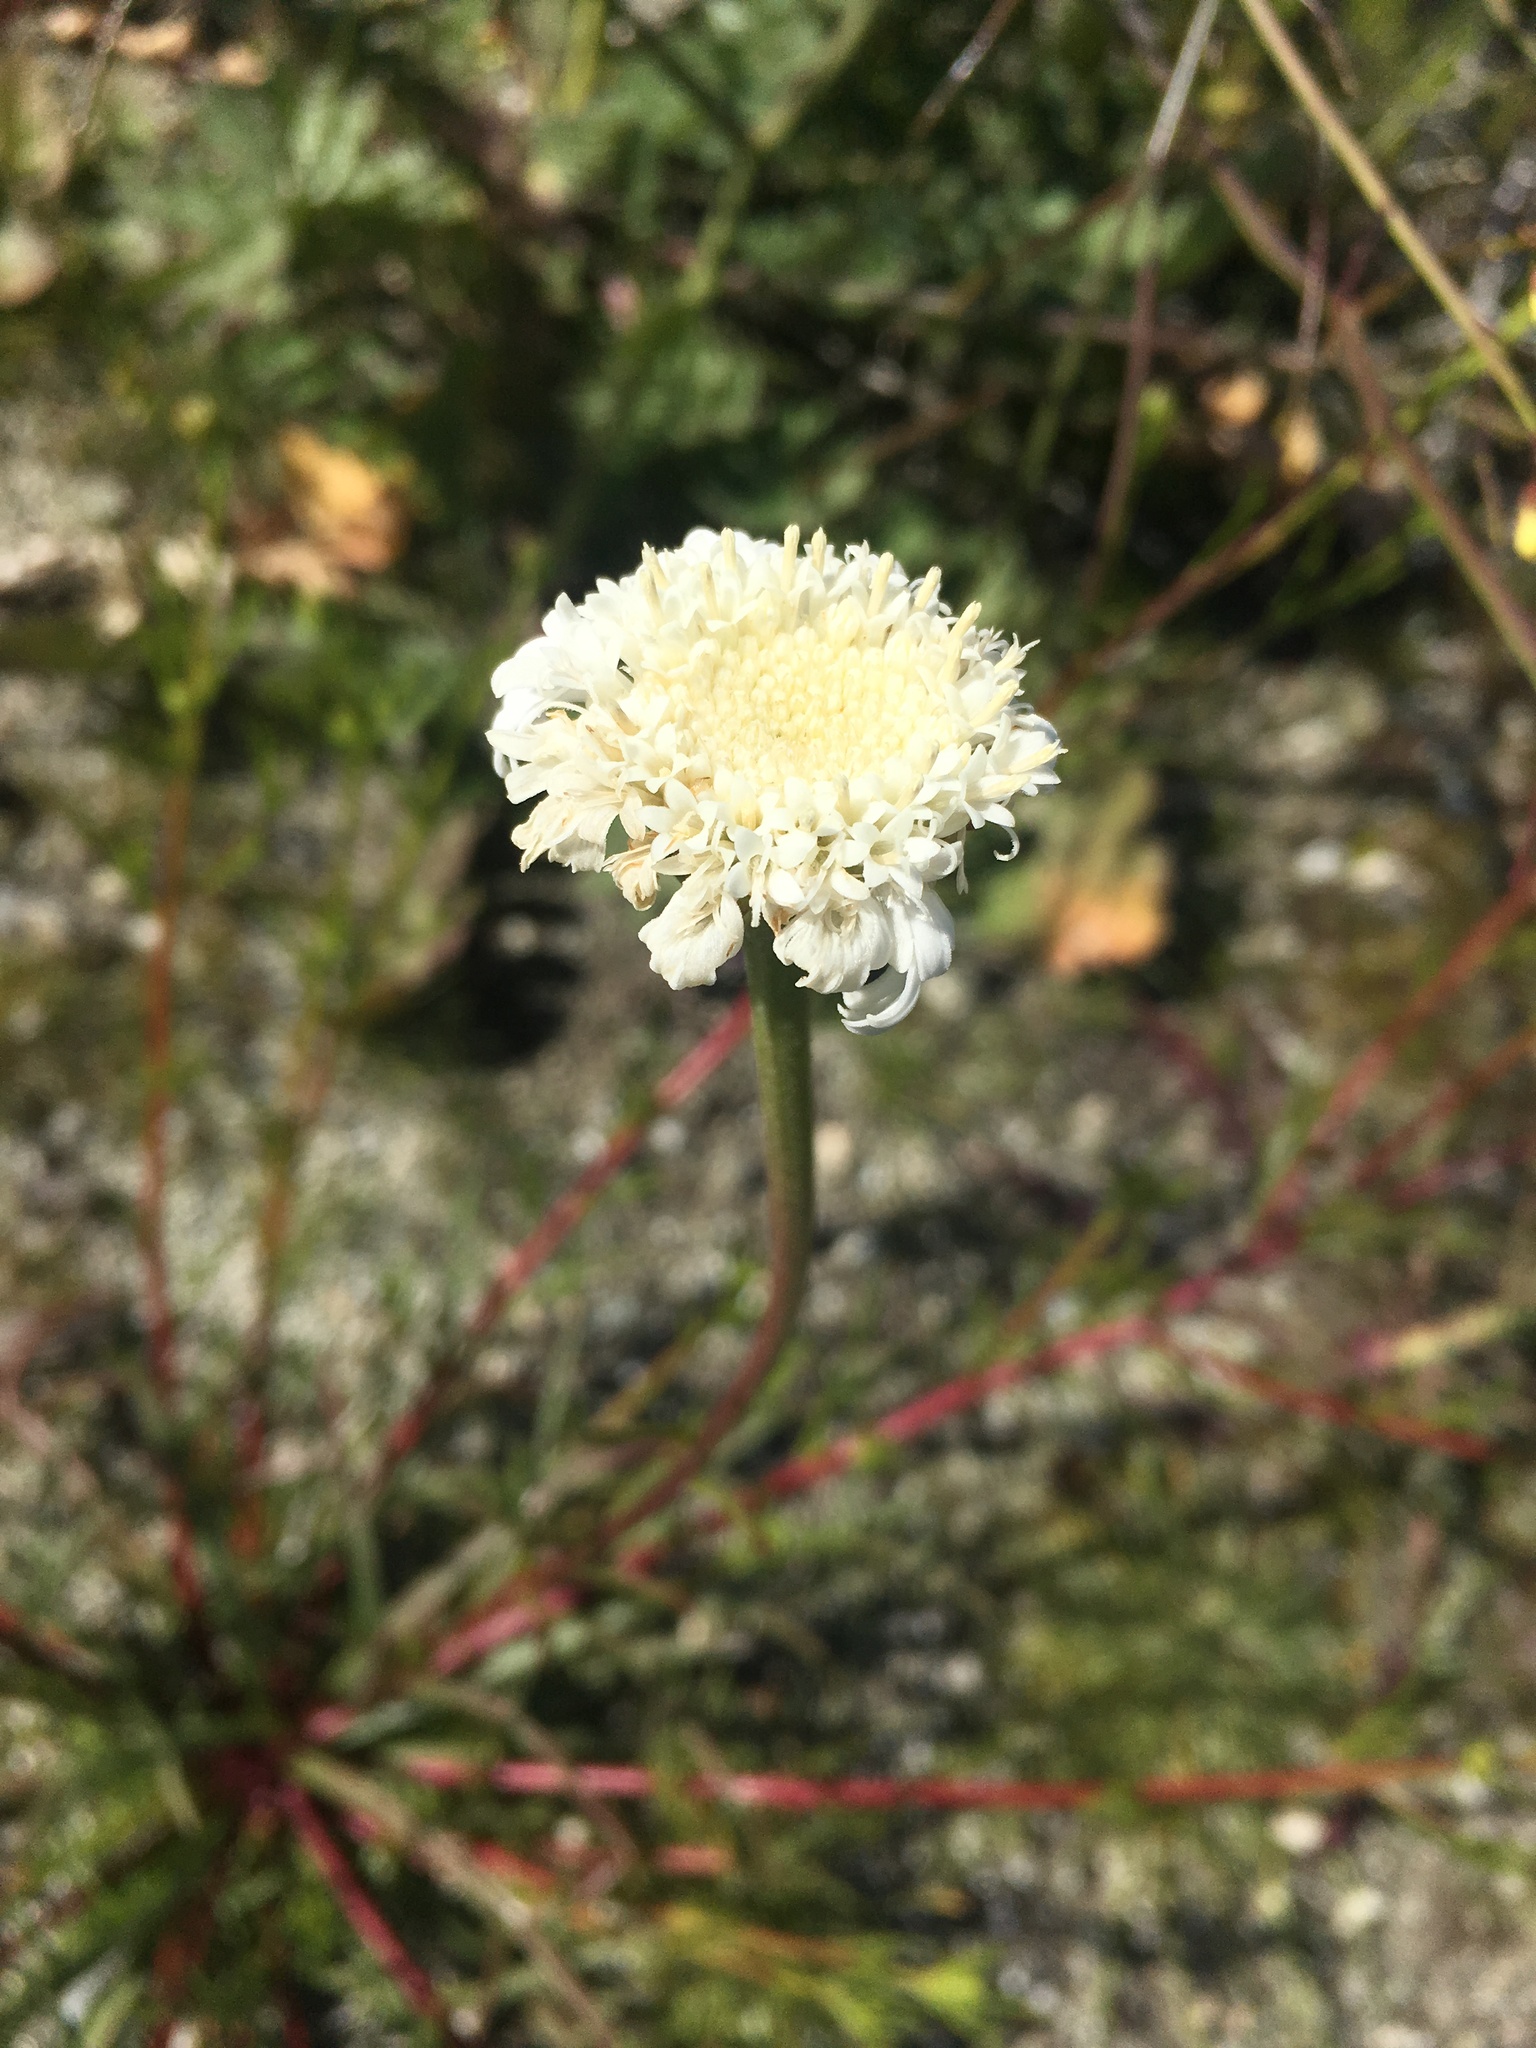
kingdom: Plantae
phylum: Tracheophyta
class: Magnoliopsida
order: Asterales
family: Asteraceae
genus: Chaenactis
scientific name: Chaenactis fremontii
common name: Fremont pincushion
